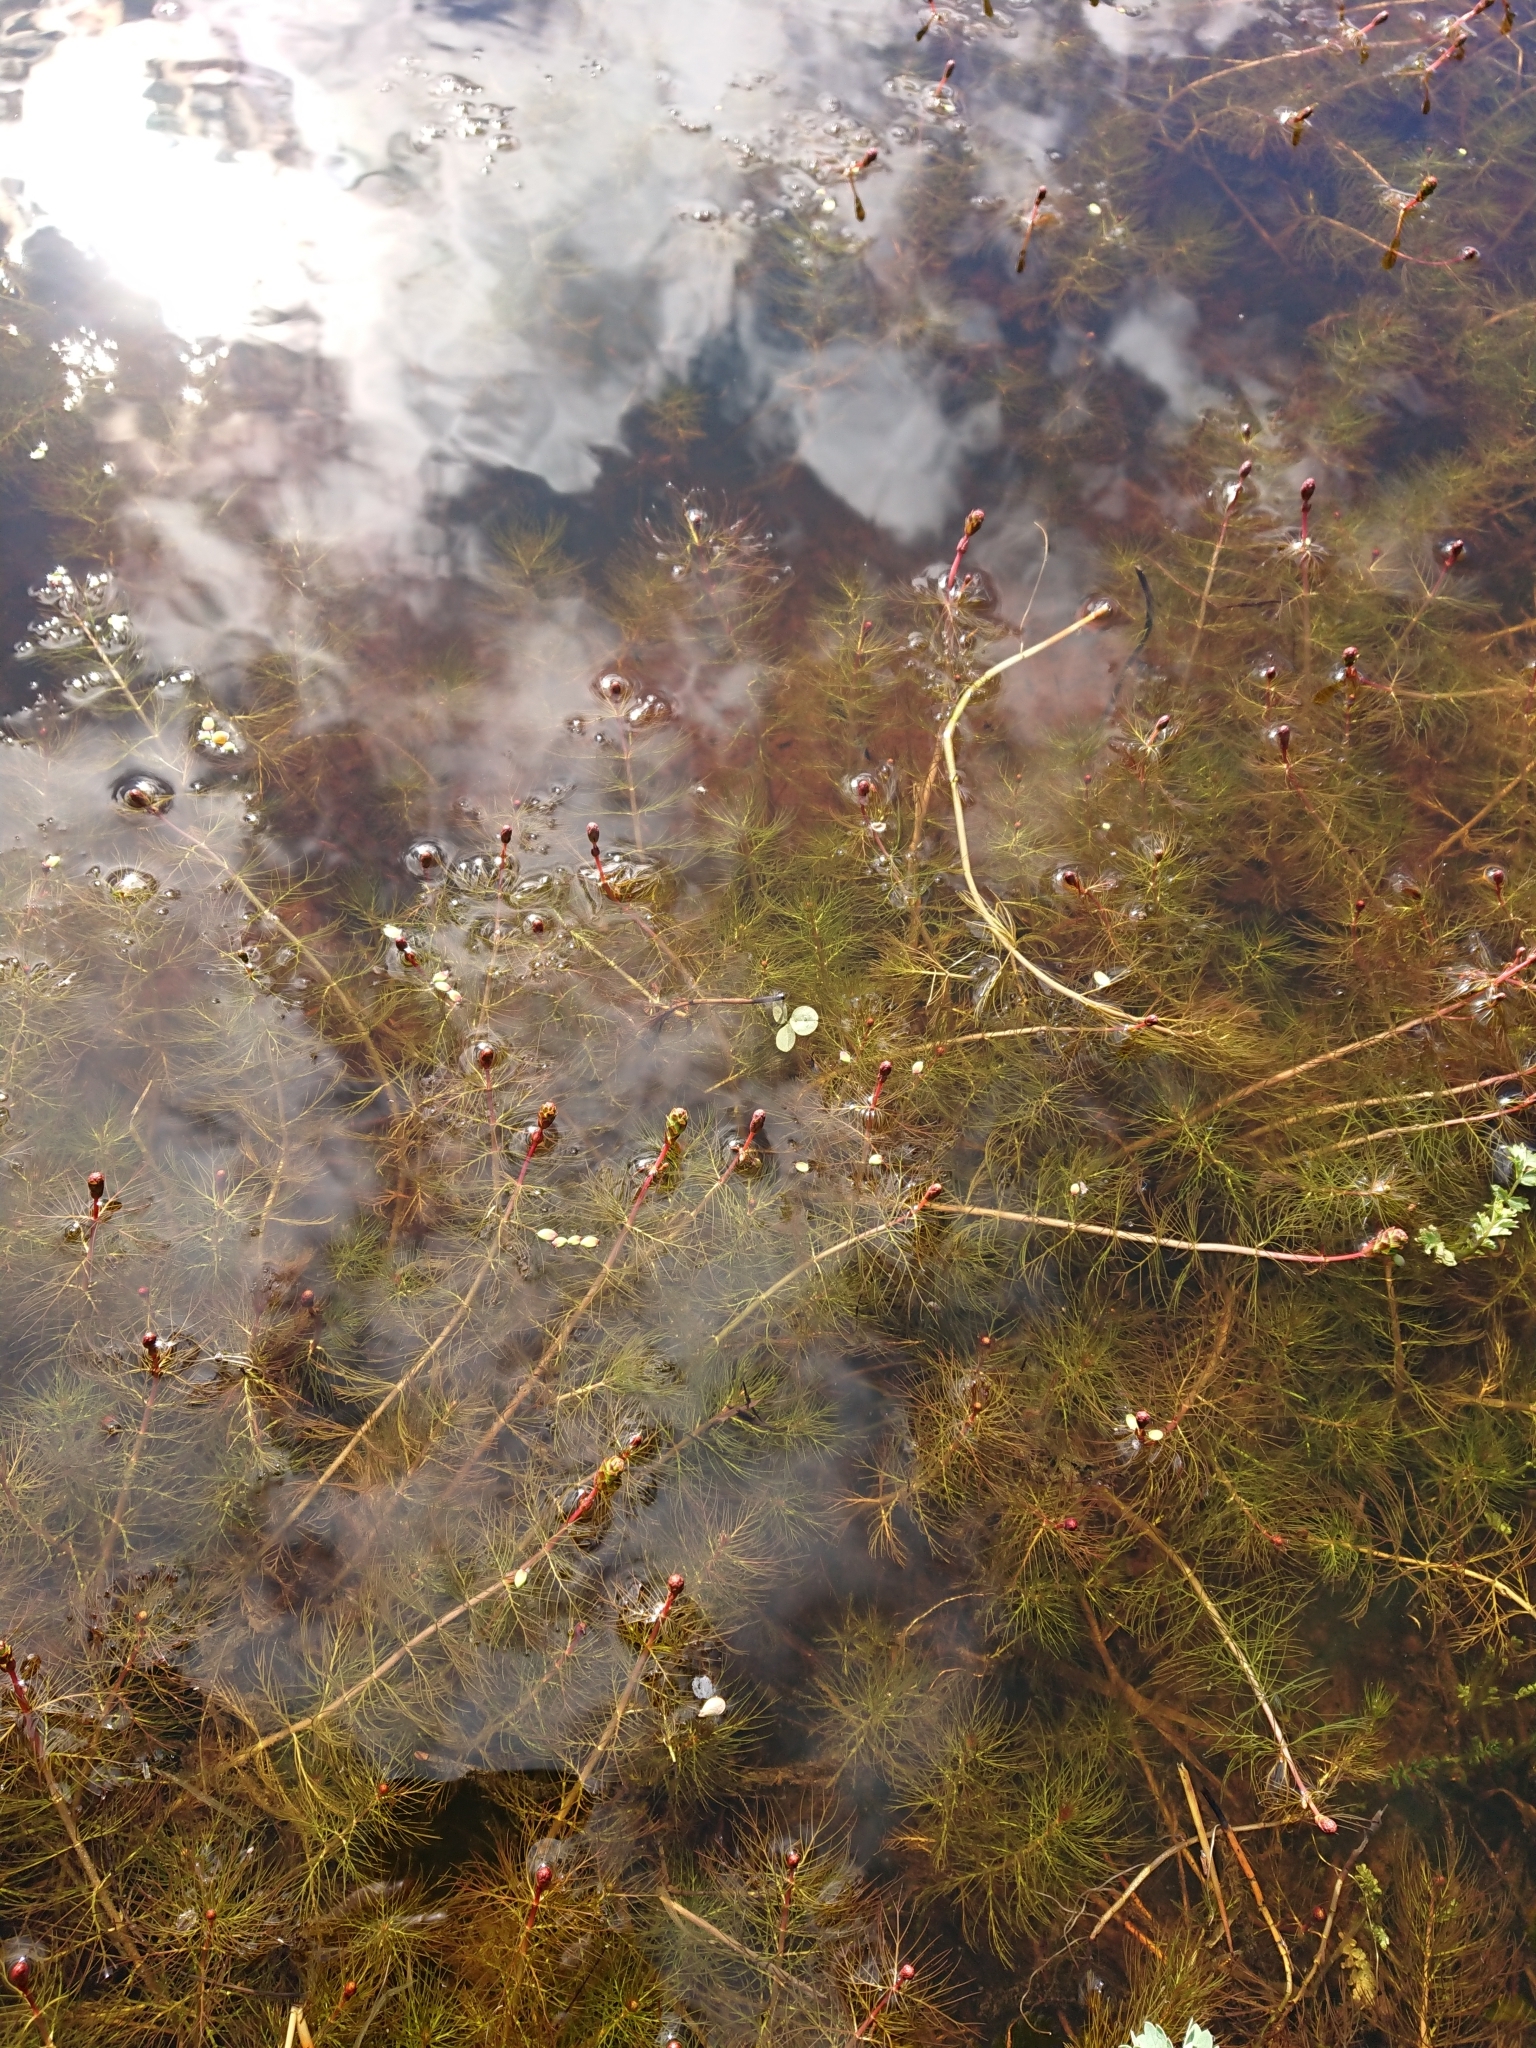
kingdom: Plantae
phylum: Tracheophyta
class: Magnoliopsida
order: Saxifragales
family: Haloragaceae
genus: Myriophyllum
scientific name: Myriophyllum quitense
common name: Andean water milfoil
